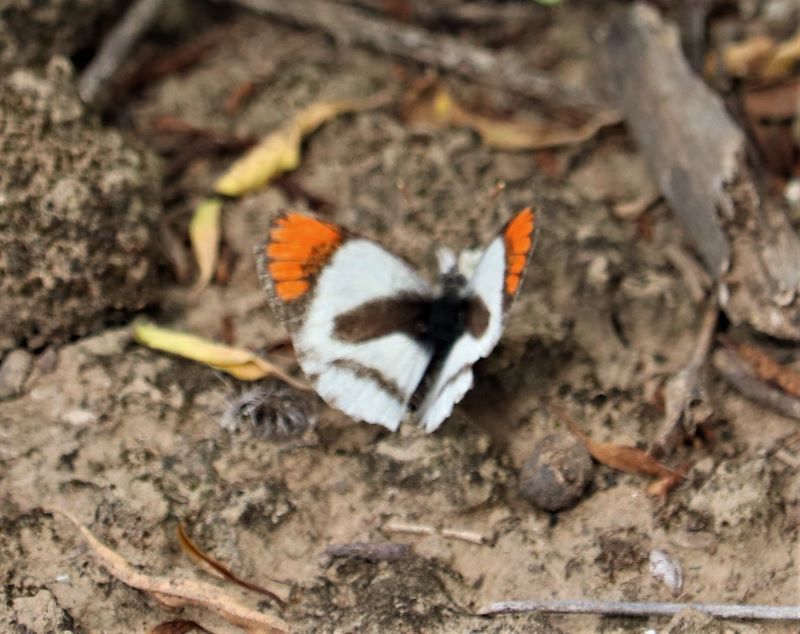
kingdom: Animalia
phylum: Arthropoda
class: Insecta
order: Lepidoptera
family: Pieridae
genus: Colotis
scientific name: Colotis euippe
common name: Round-winged orange tip
